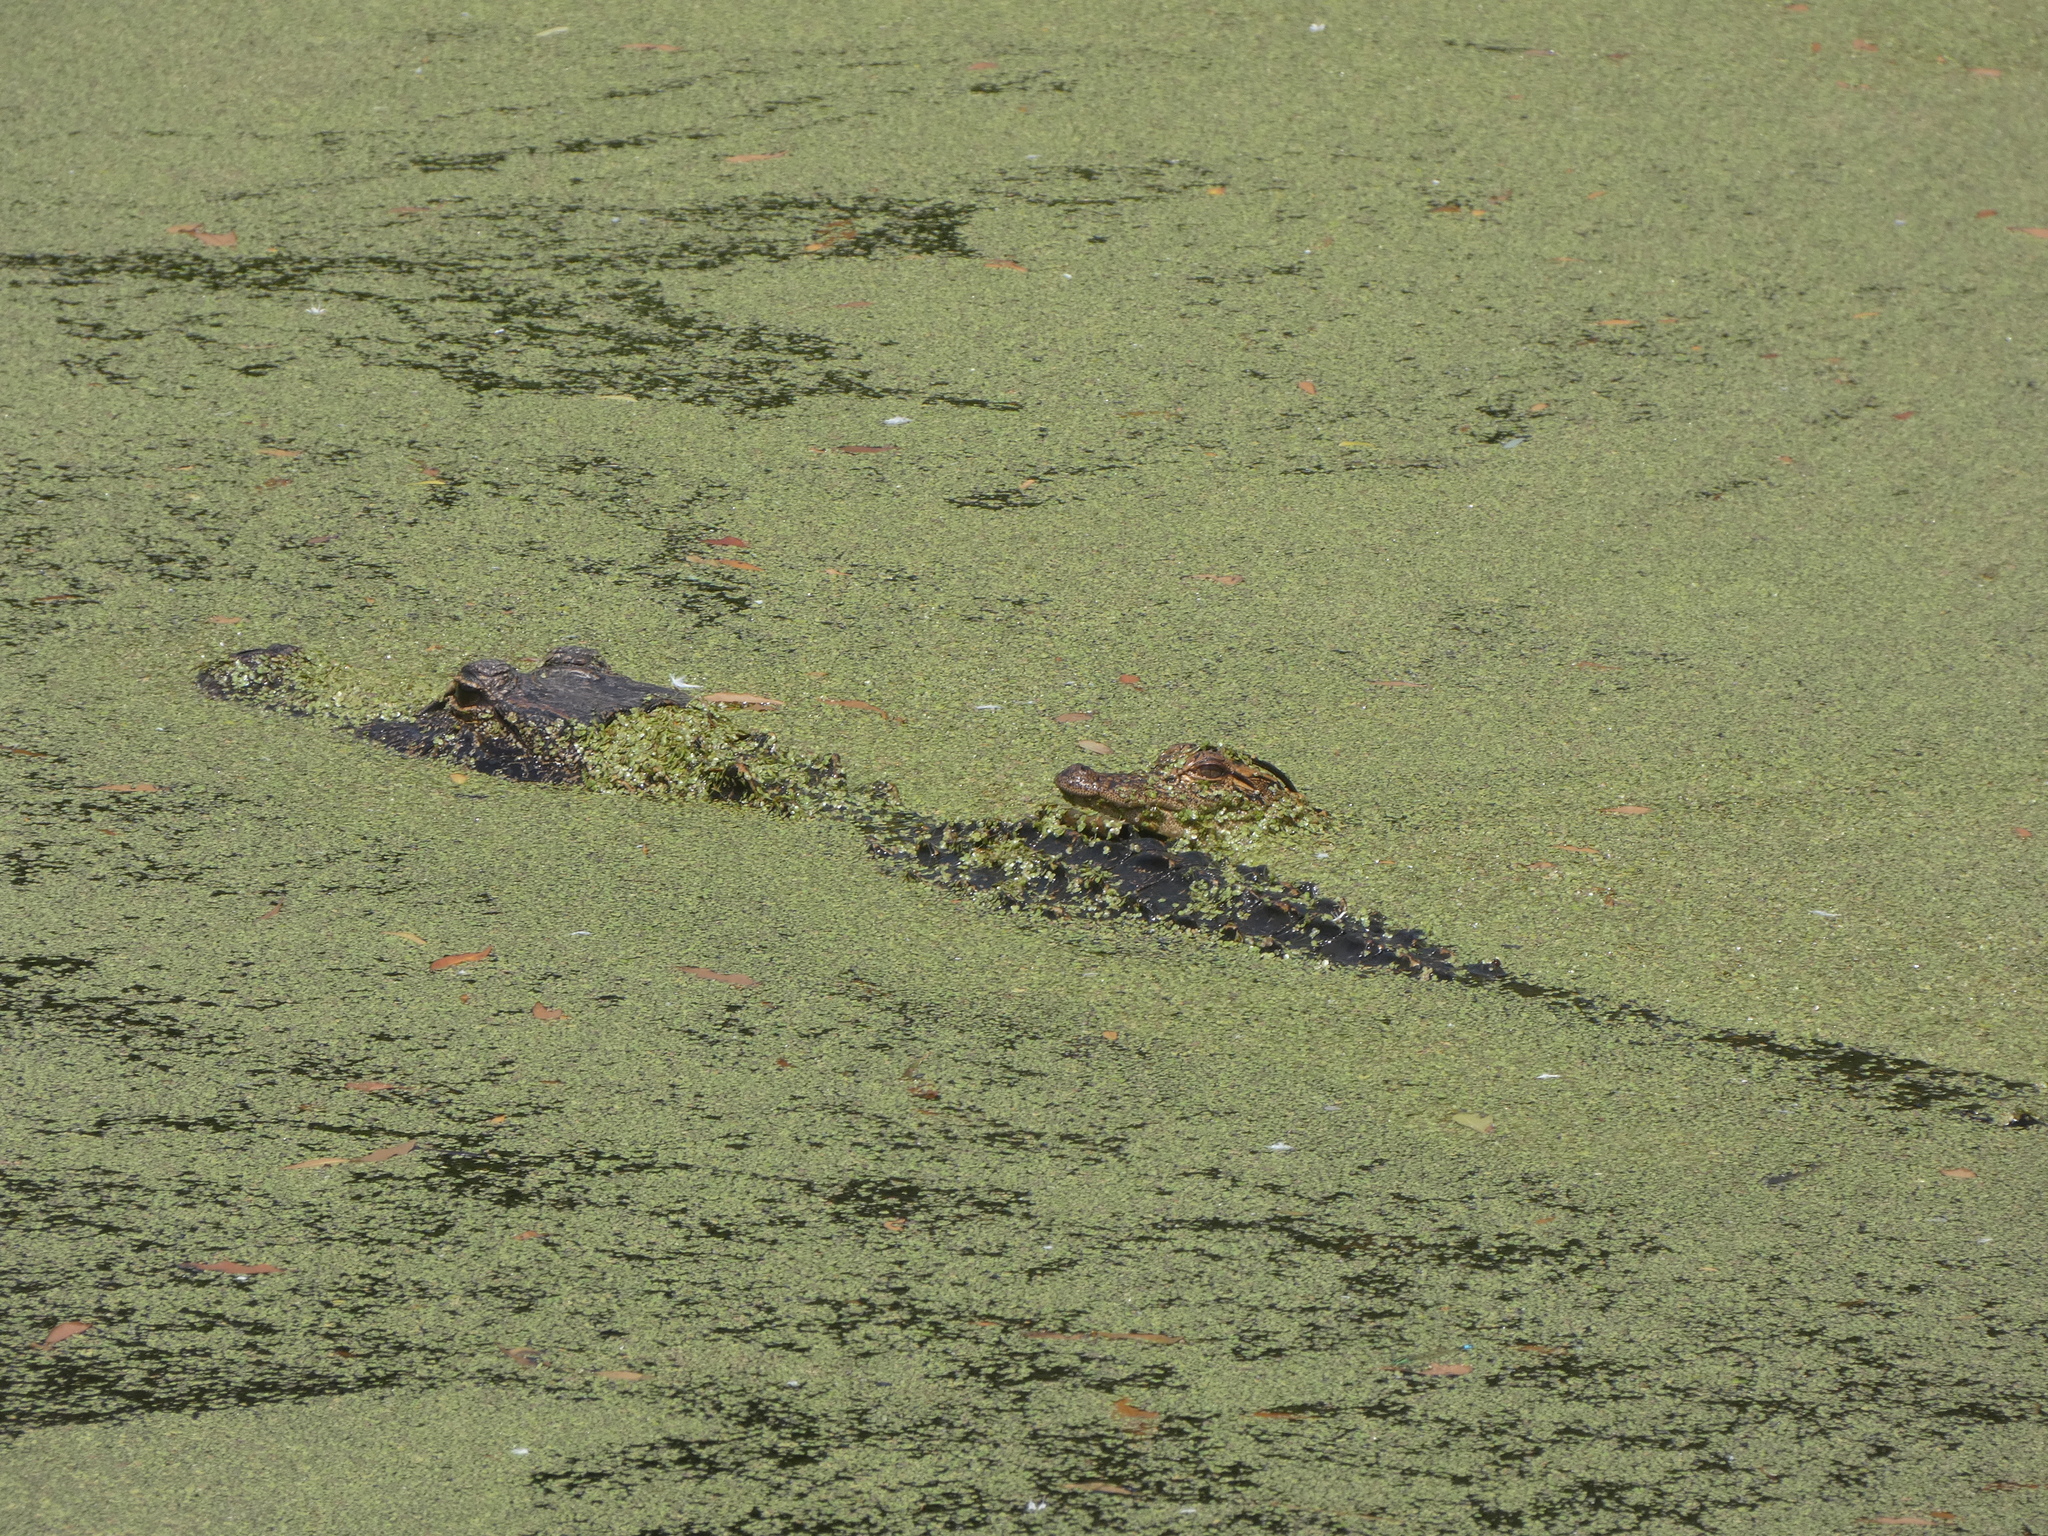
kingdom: Animalia
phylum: Chordata
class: Crocodylia
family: Alligatoridae
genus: Alligator
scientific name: Alligator mississippiensis
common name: American alligator
